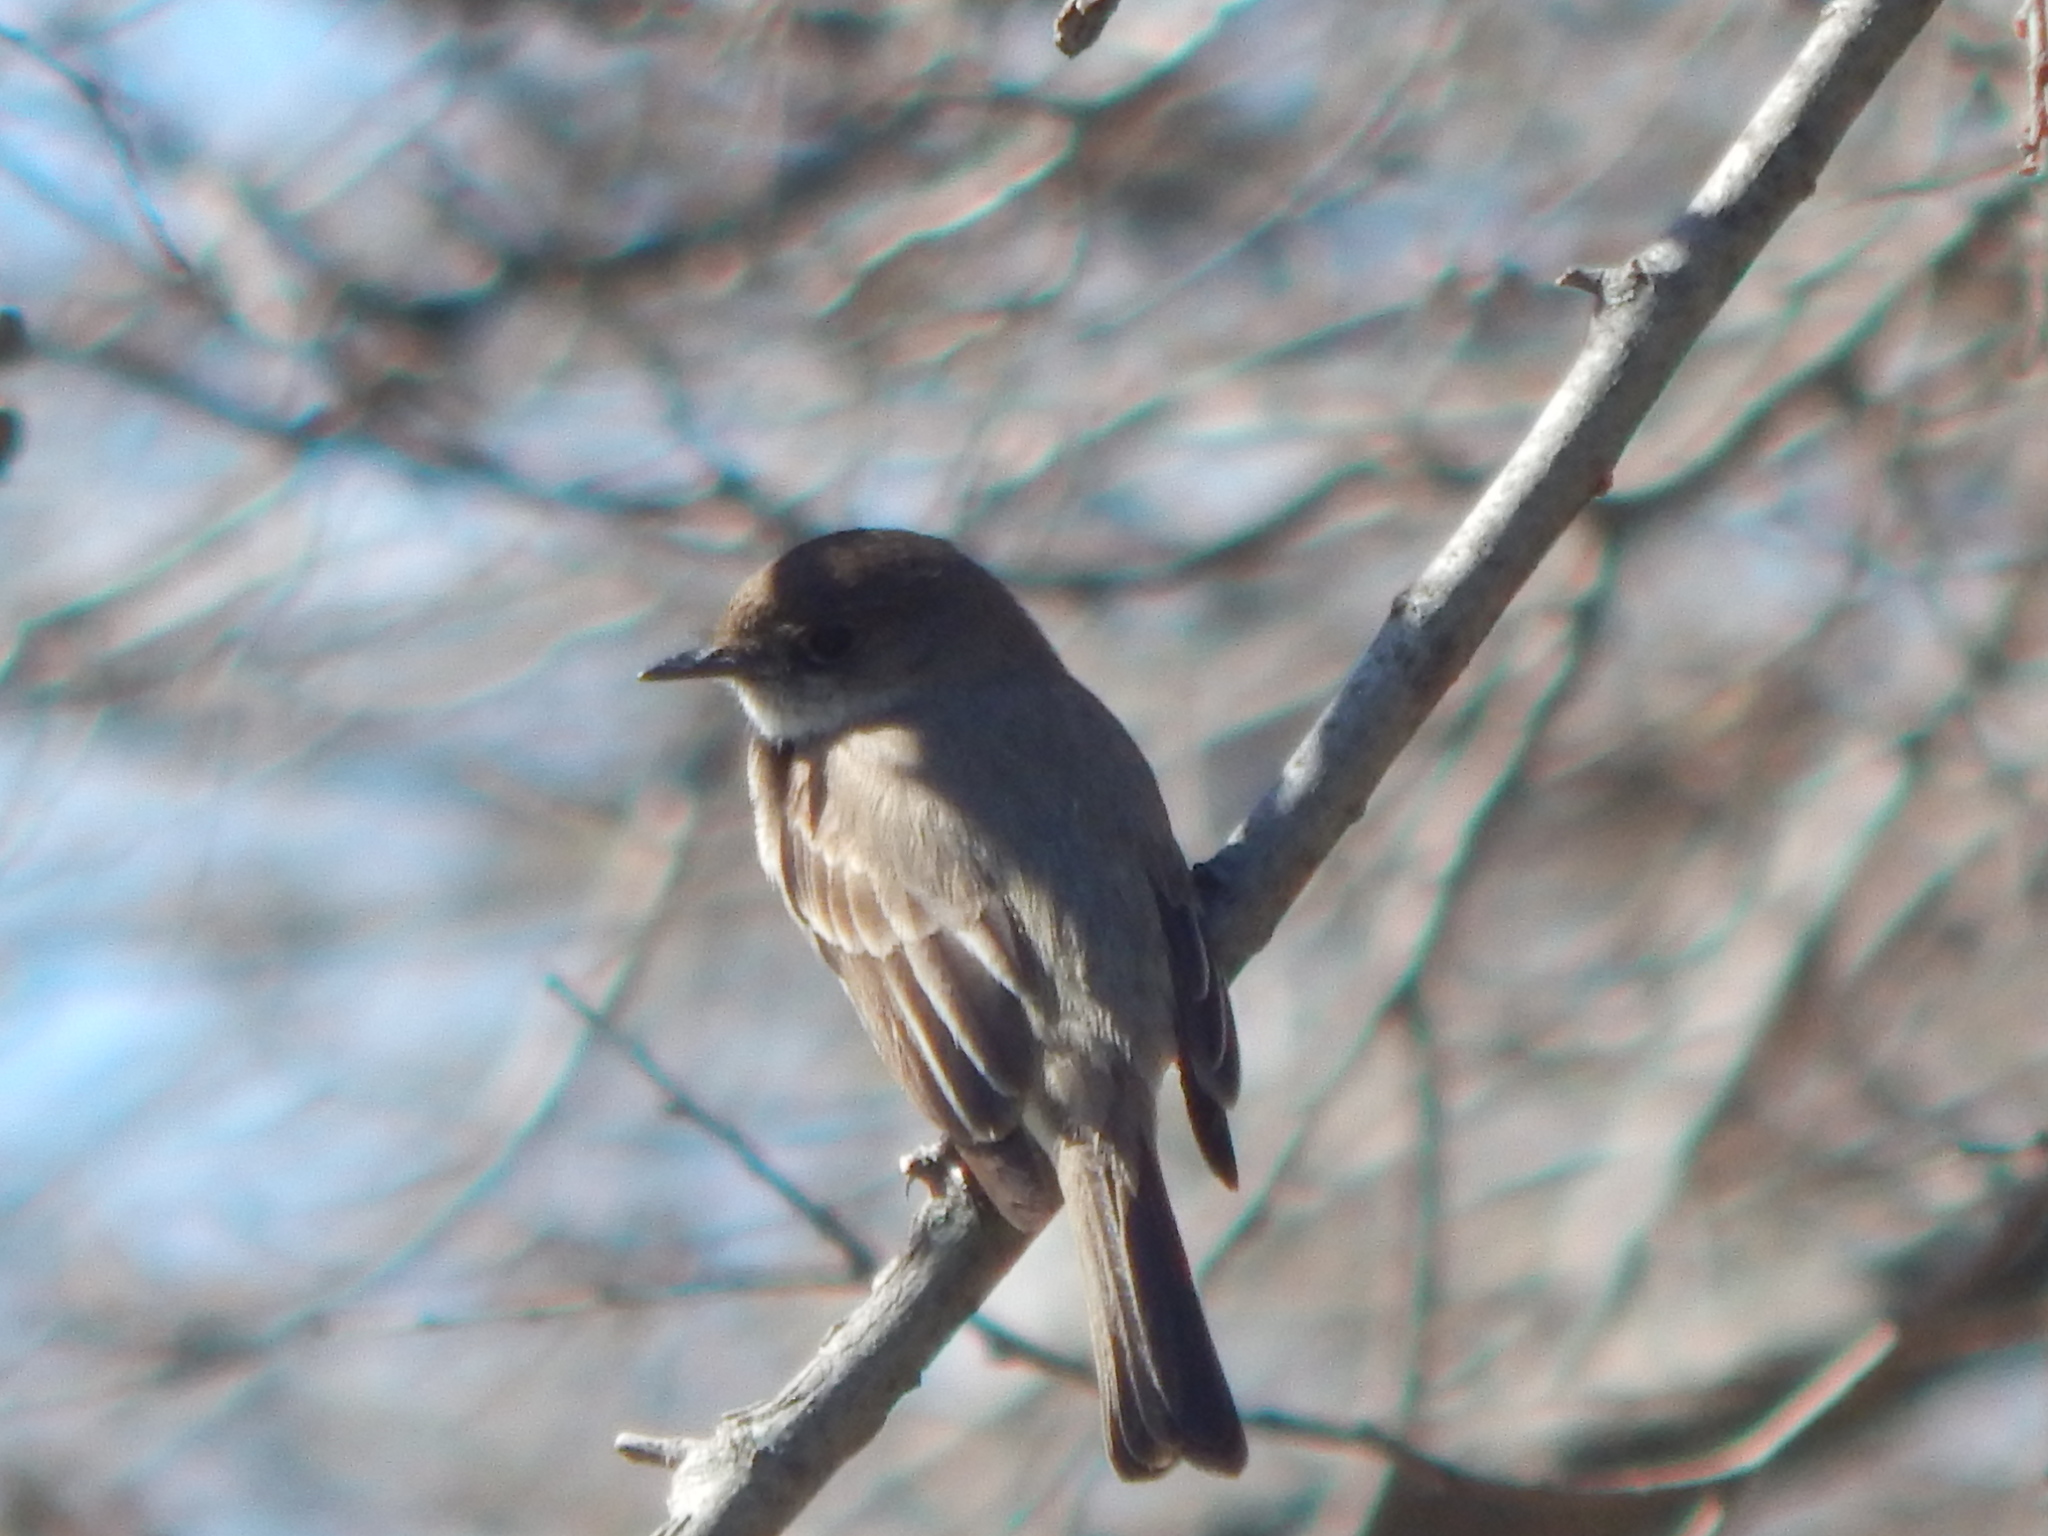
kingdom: Animalia
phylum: Chordata
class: Aves
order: Passeriformes
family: Tyrannidae
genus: Sayornis
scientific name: Sayornis phoebe
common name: Eastern phoebe
